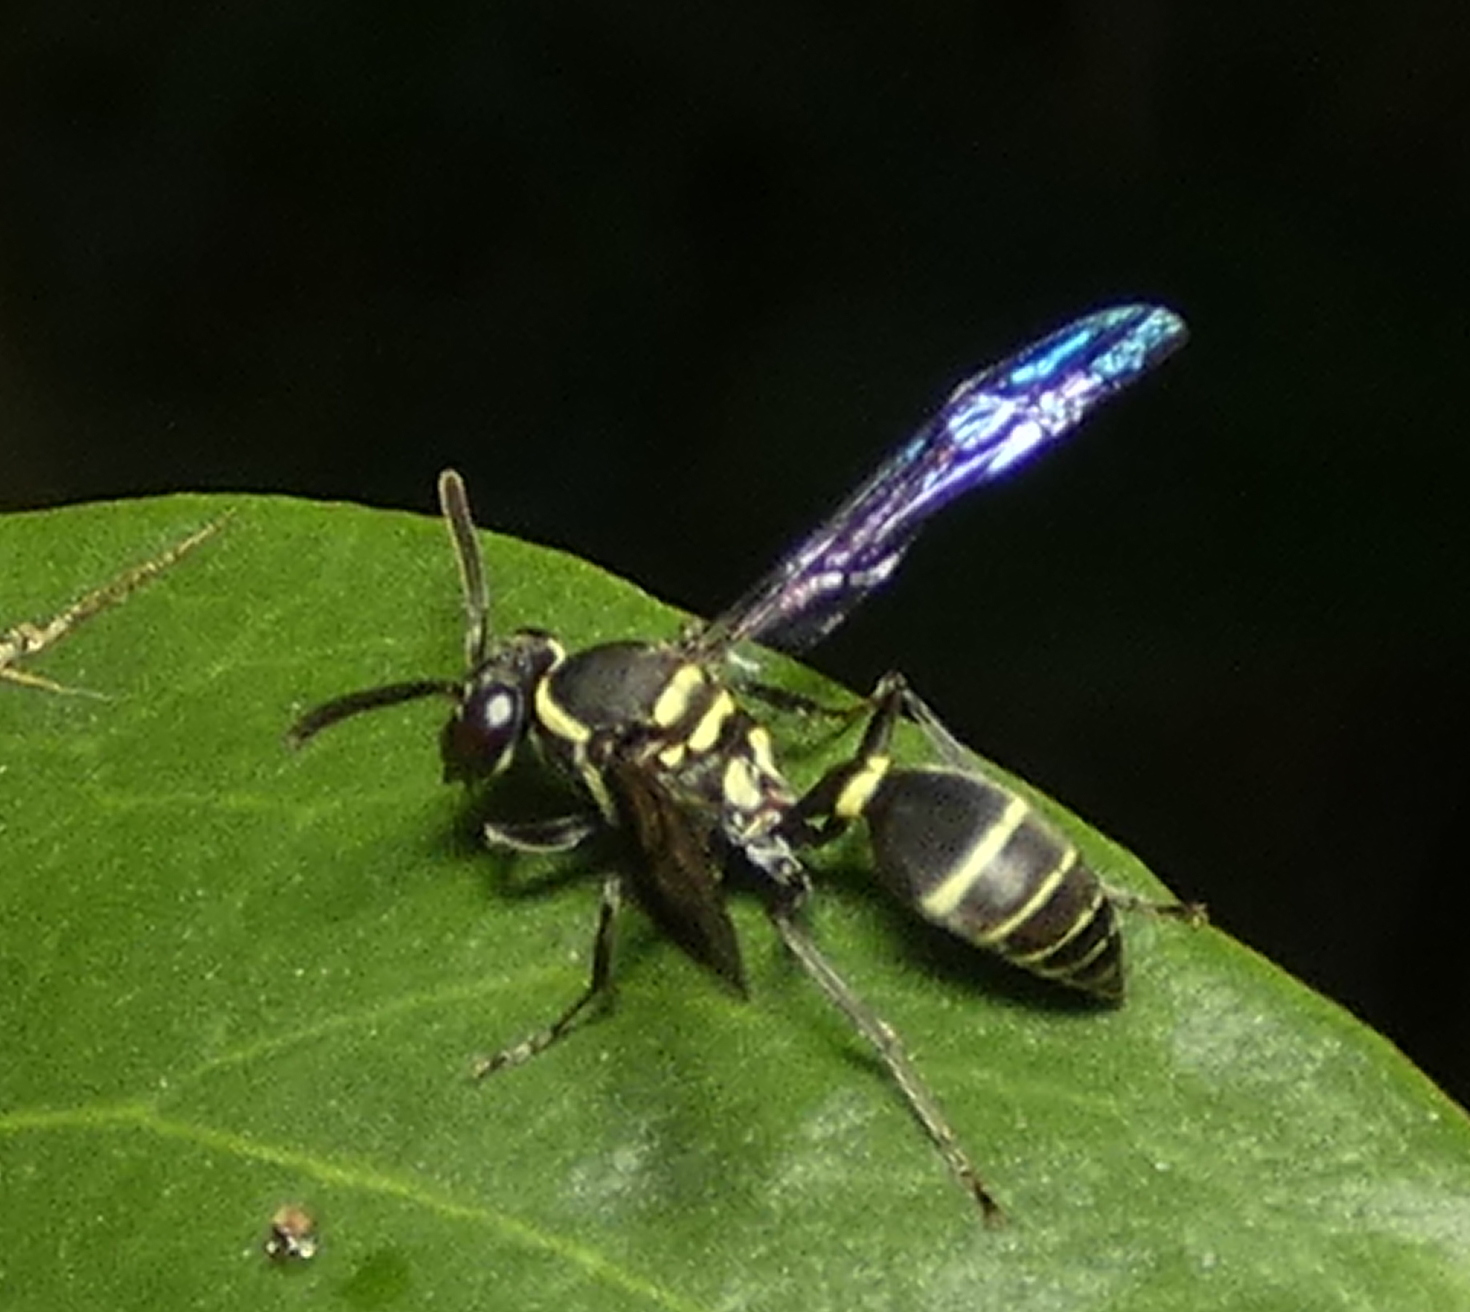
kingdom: Animalia
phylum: Arthropoda
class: Insecta
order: Hymenoptera
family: Eumenidae
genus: Polybia
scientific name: Polybia occidentalis
